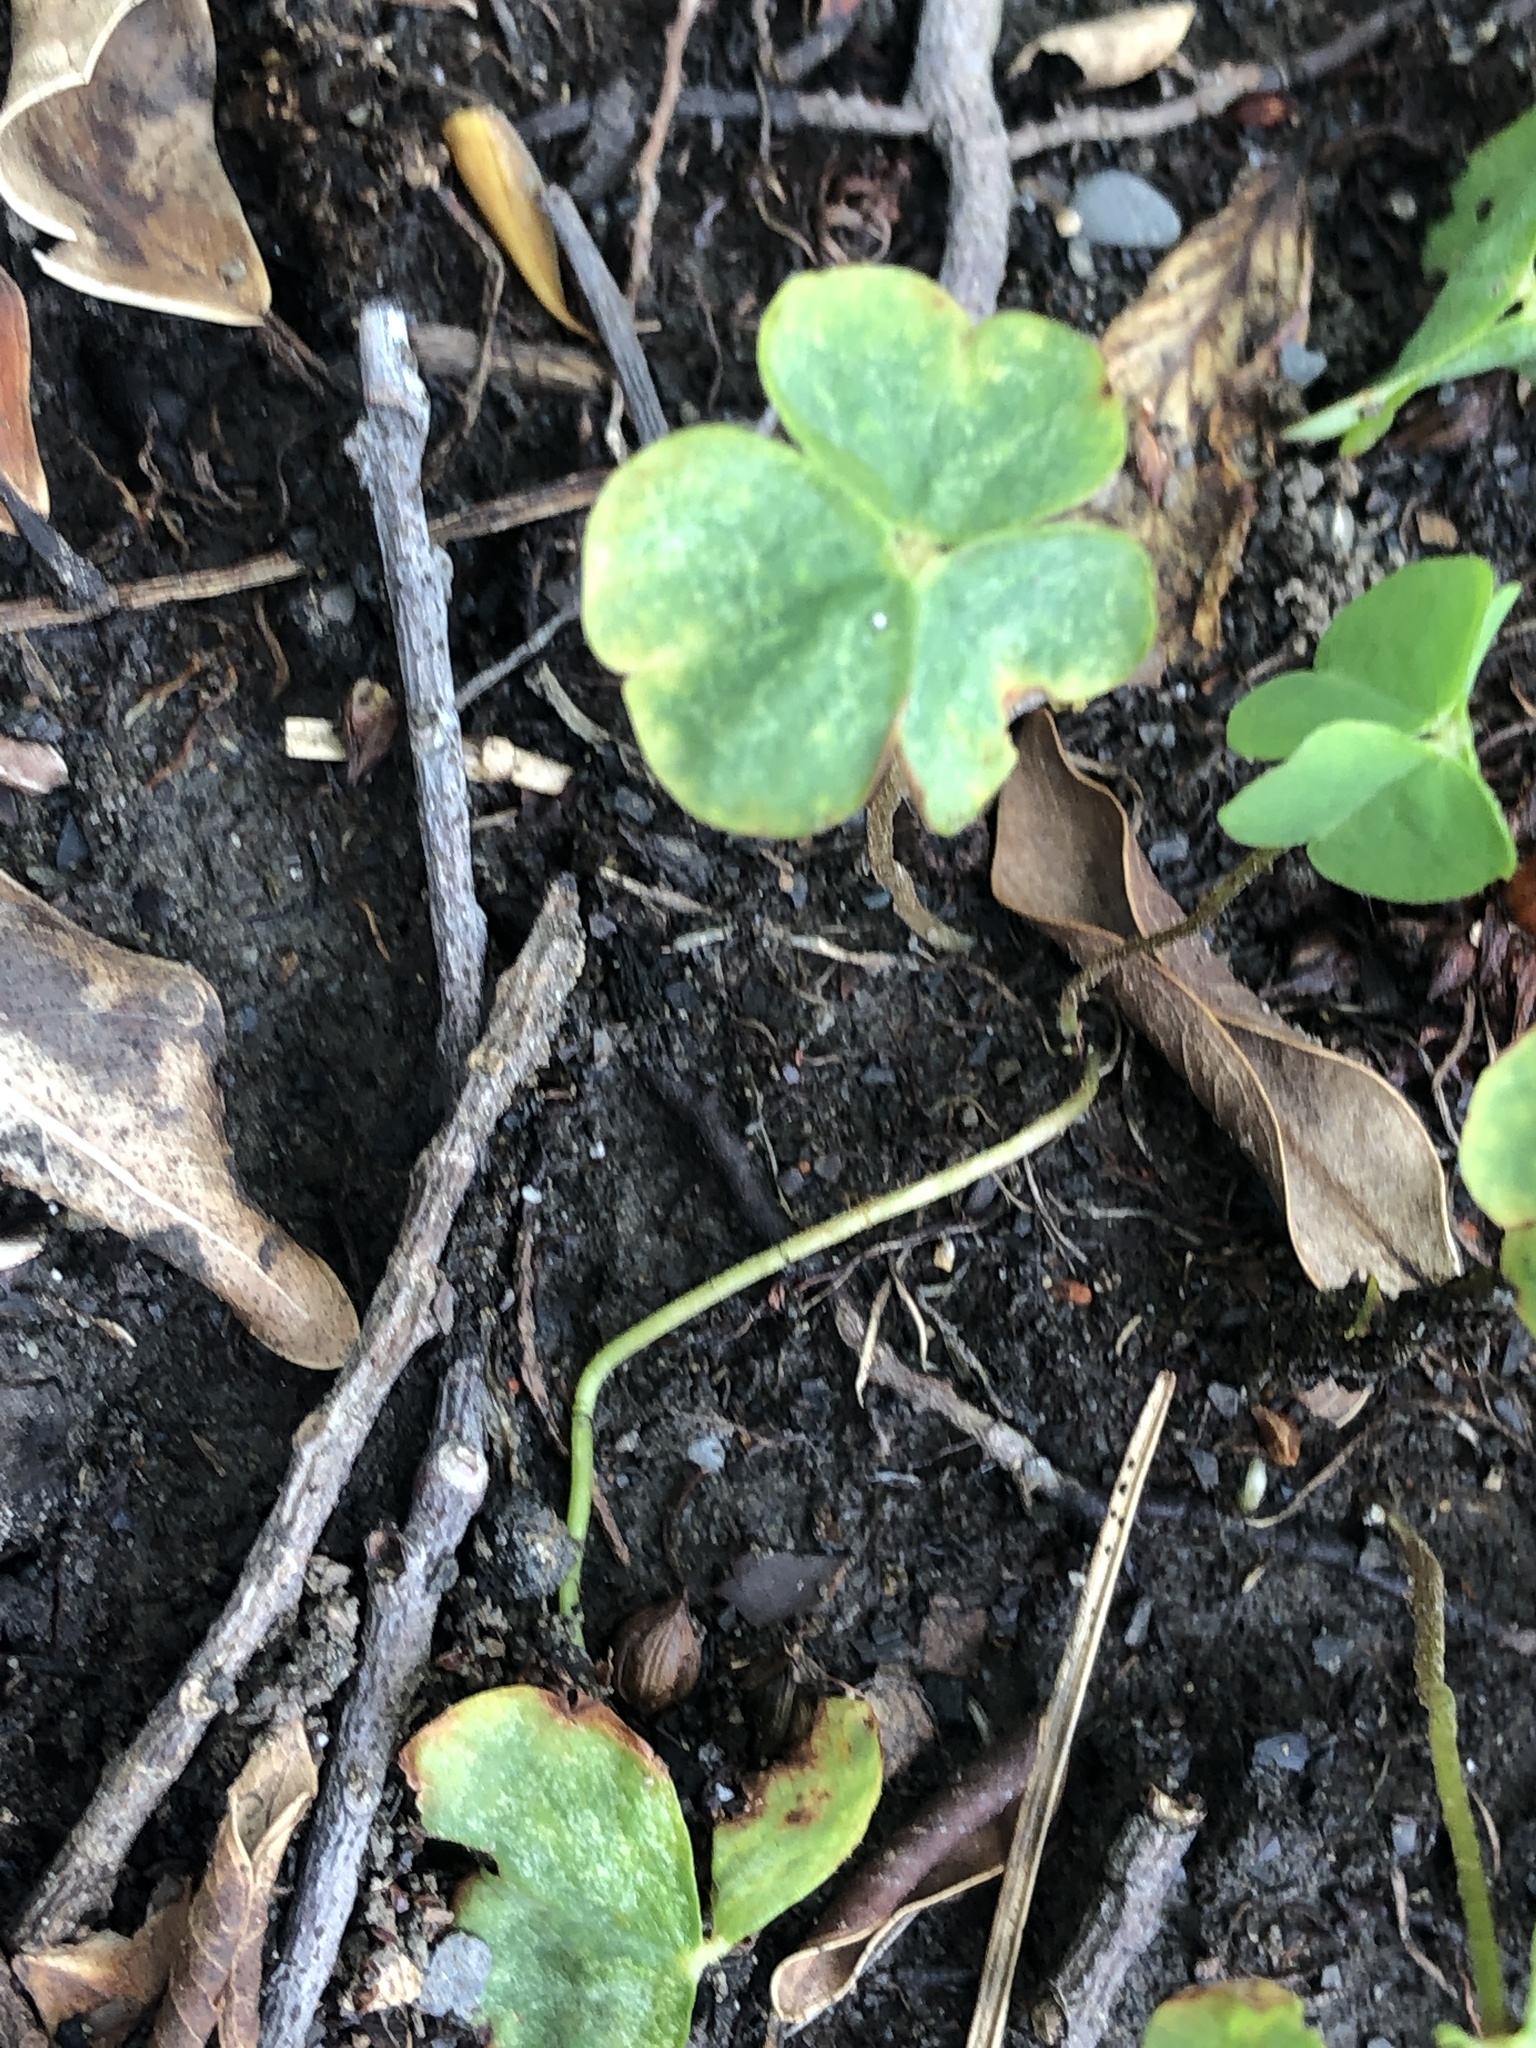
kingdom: Plantae
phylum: Tracheophyta
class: Magnoliopsida
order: Oxalidales
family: Oxalidaceae
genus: Oxalis
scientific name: Oxalis debilis
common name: Large-flowered pink-sorrel
